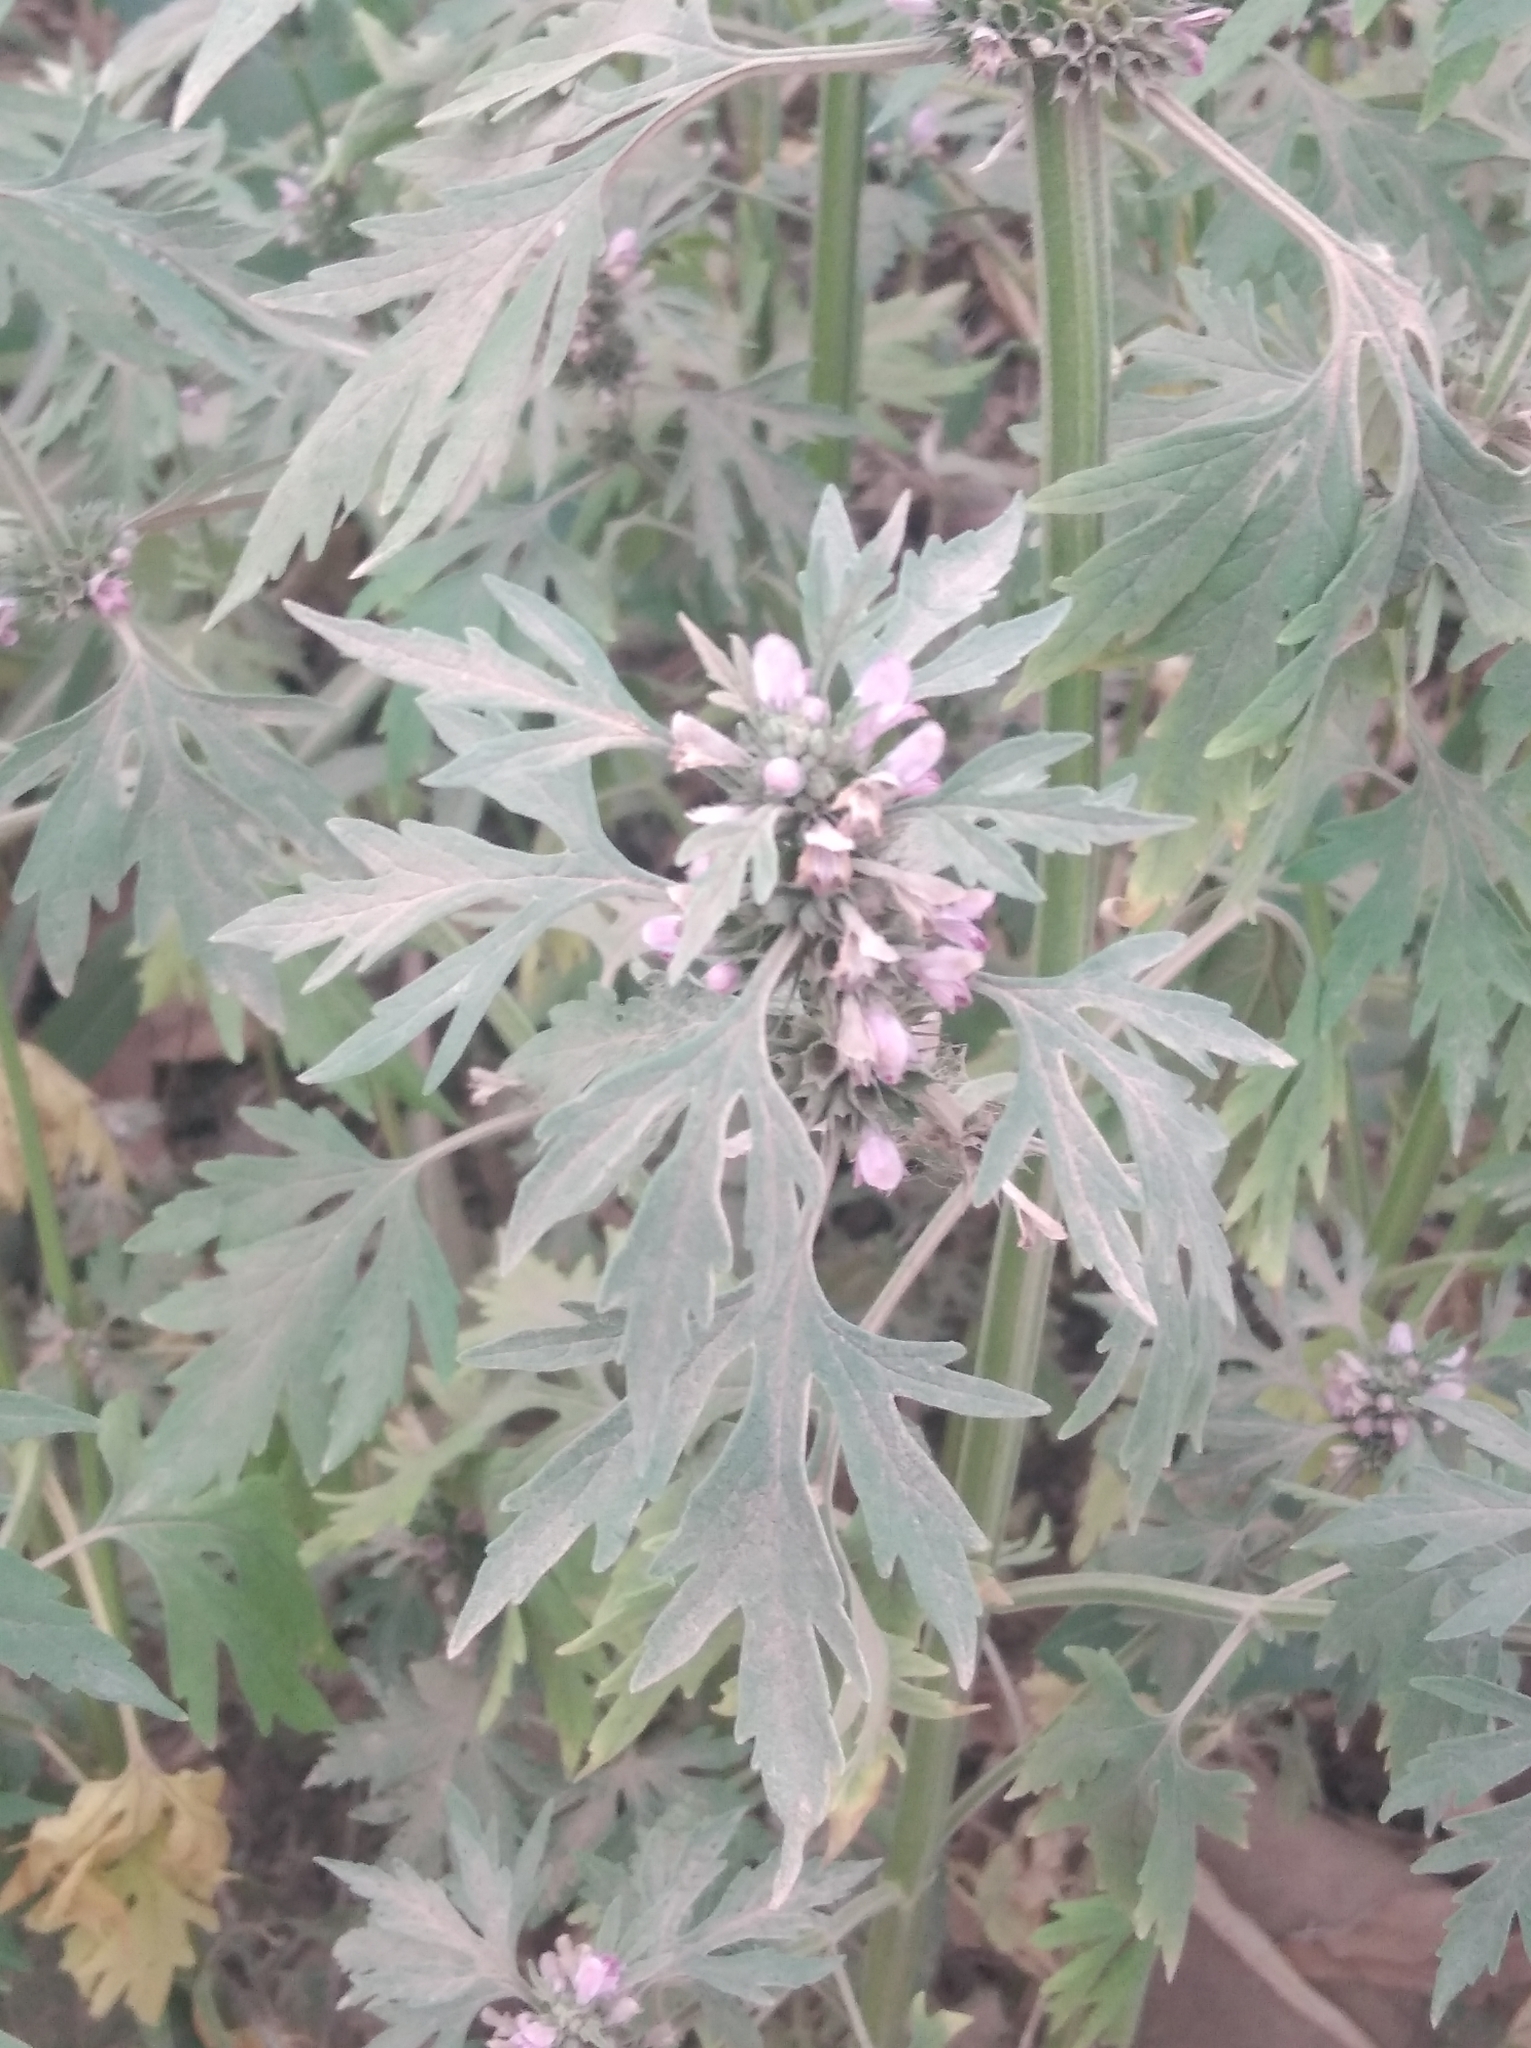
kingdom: Plantae
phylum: Tracheophyta
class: Magnoliopsida
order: Lamiales
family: Lamiaceae
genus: Leonurus
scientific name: Leonurus japonicus
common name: Honeyweed
